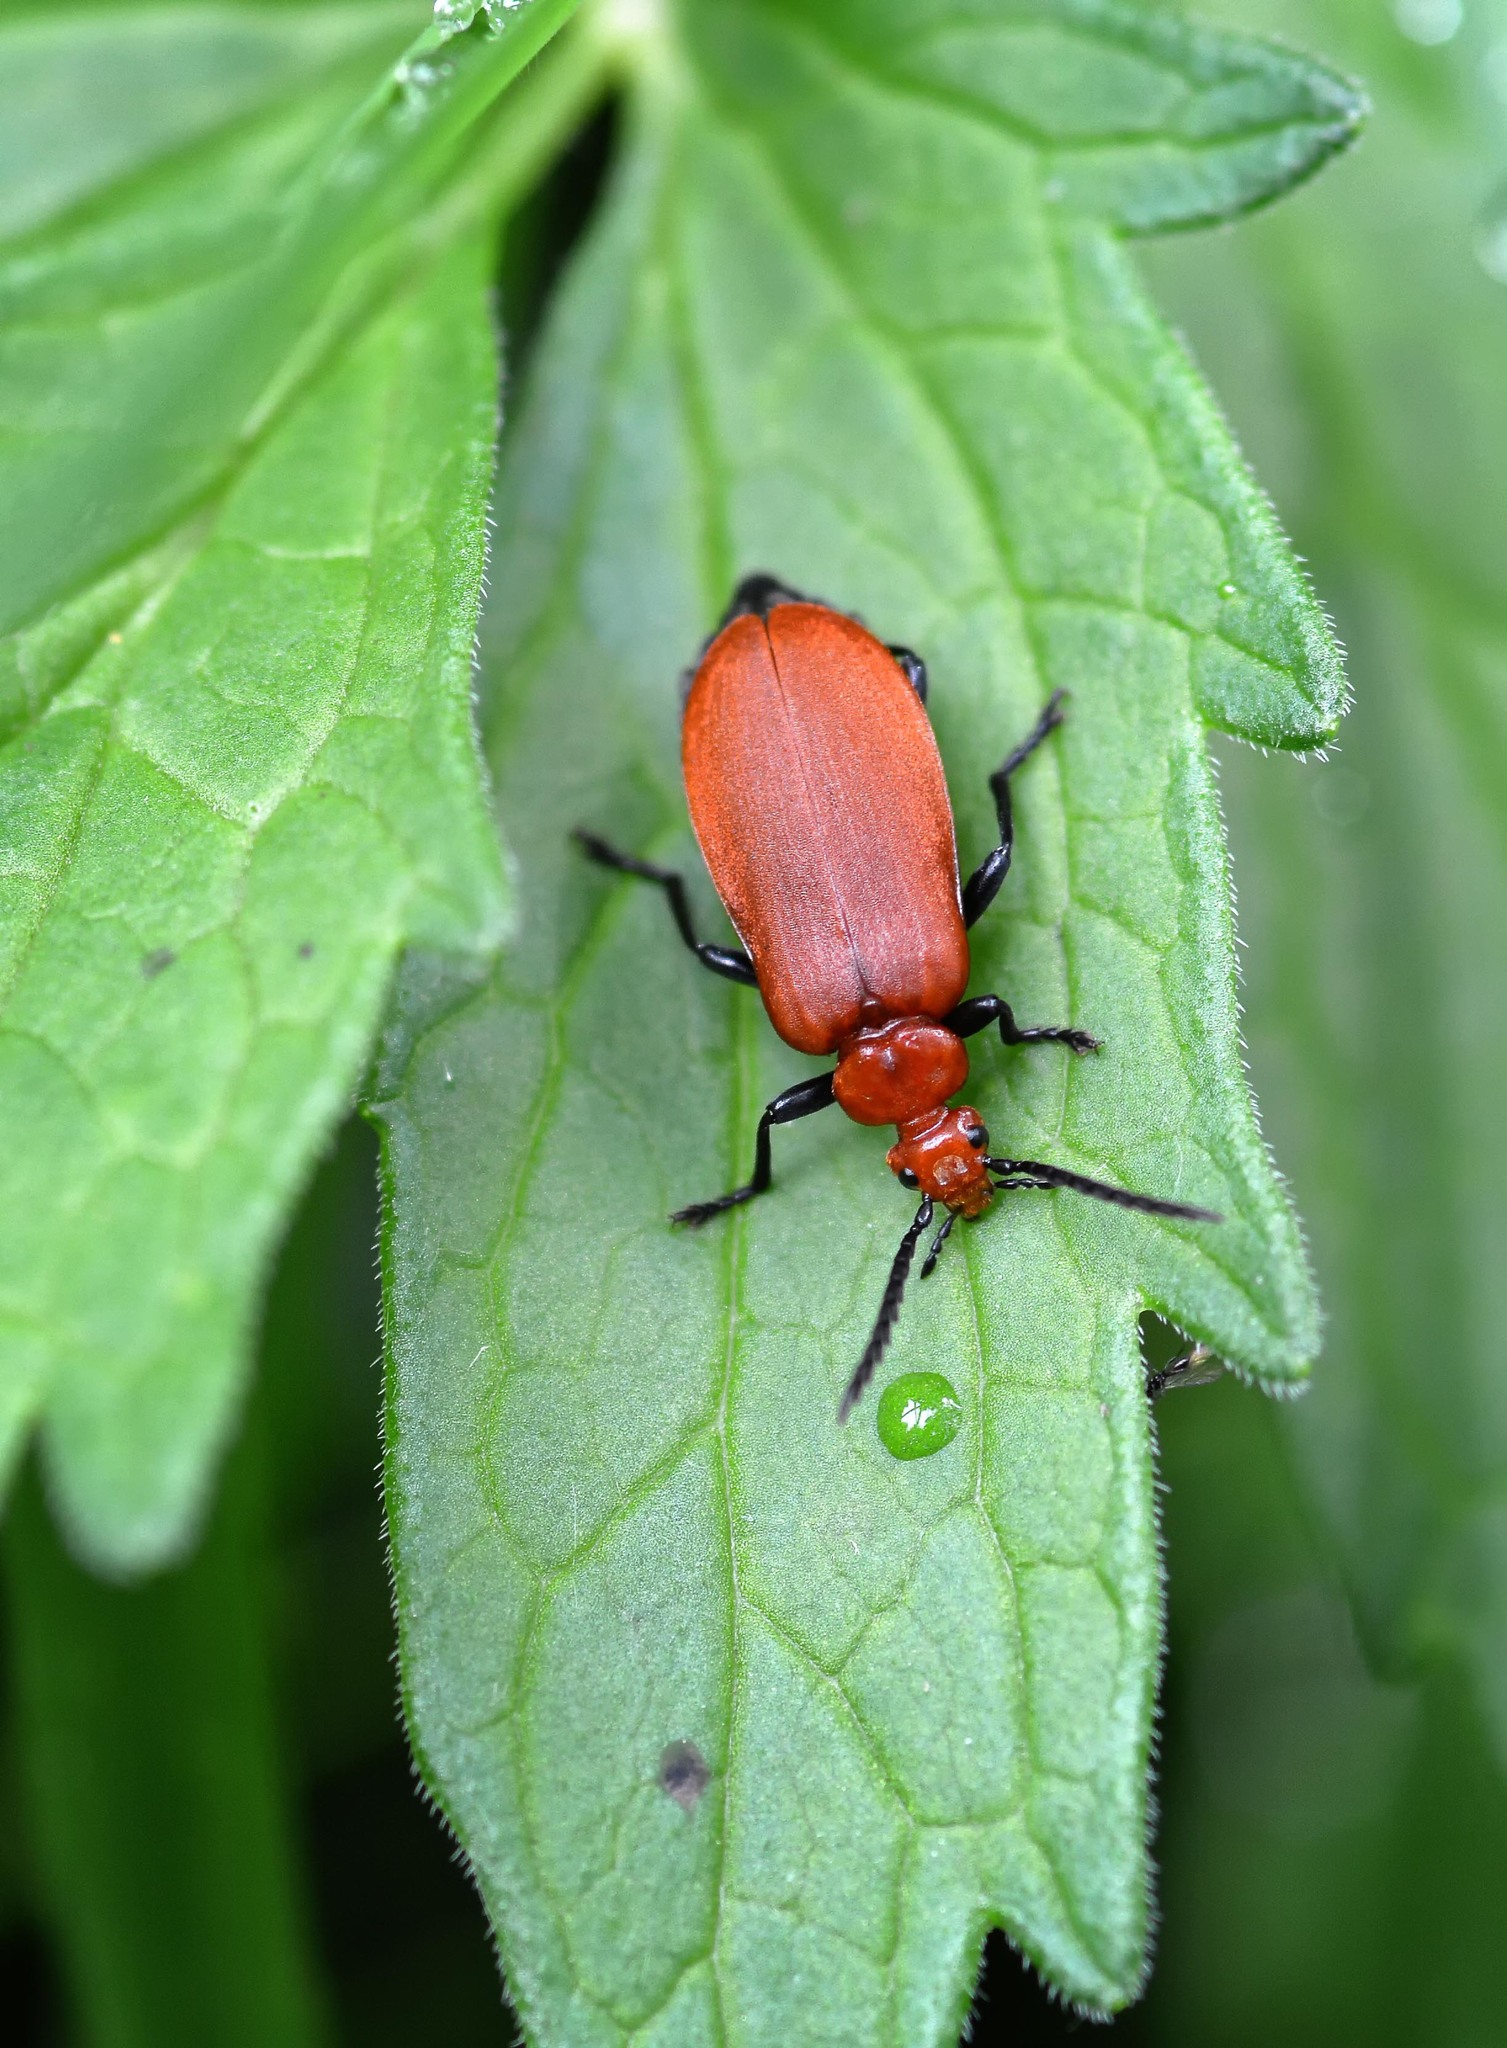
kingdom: Animalia
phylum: Arthropoda
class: Insecta
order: Coleoptera
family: Pyrochroidae
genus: Pyrochroa
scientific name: Pyrochroa serraticornis
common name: Red-headed cardinal beetle
